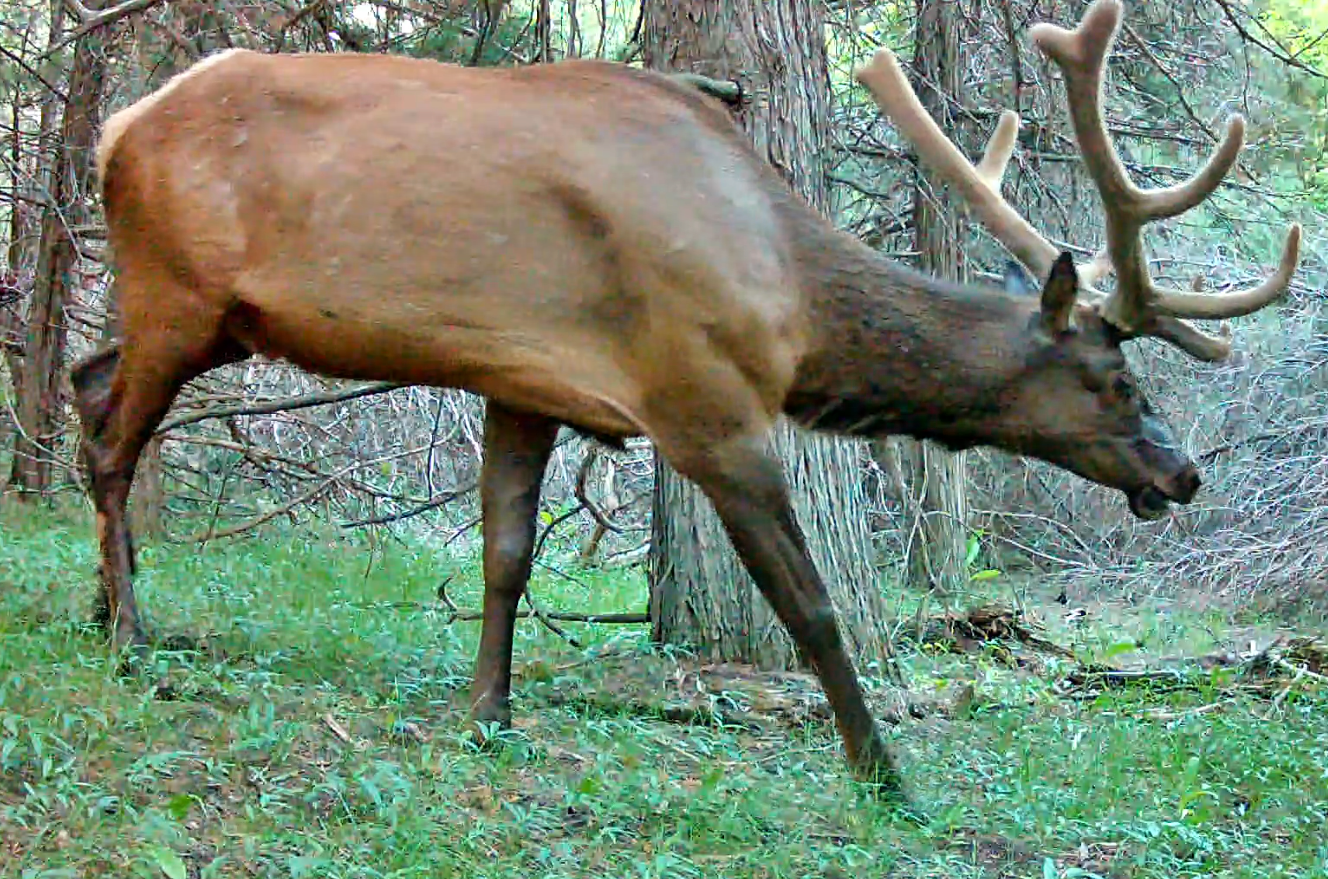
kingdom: Animalia
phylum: Chordata
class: Mammalia
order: Artiodactyla
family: Cervidae
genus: Cervus
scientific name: Cervus elaphus
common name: Red deer
